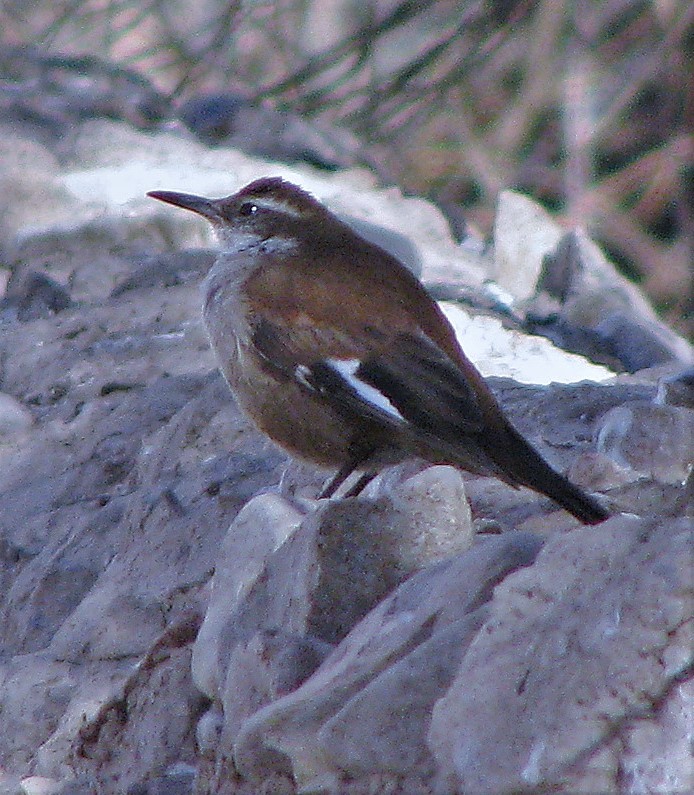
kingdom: Animalia
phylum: Chordata
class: Aves
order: Passeriformes
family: Furnariidae
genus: Cinclodes
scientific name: Cinclodes atacamensis
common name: White-winged cinclodes
